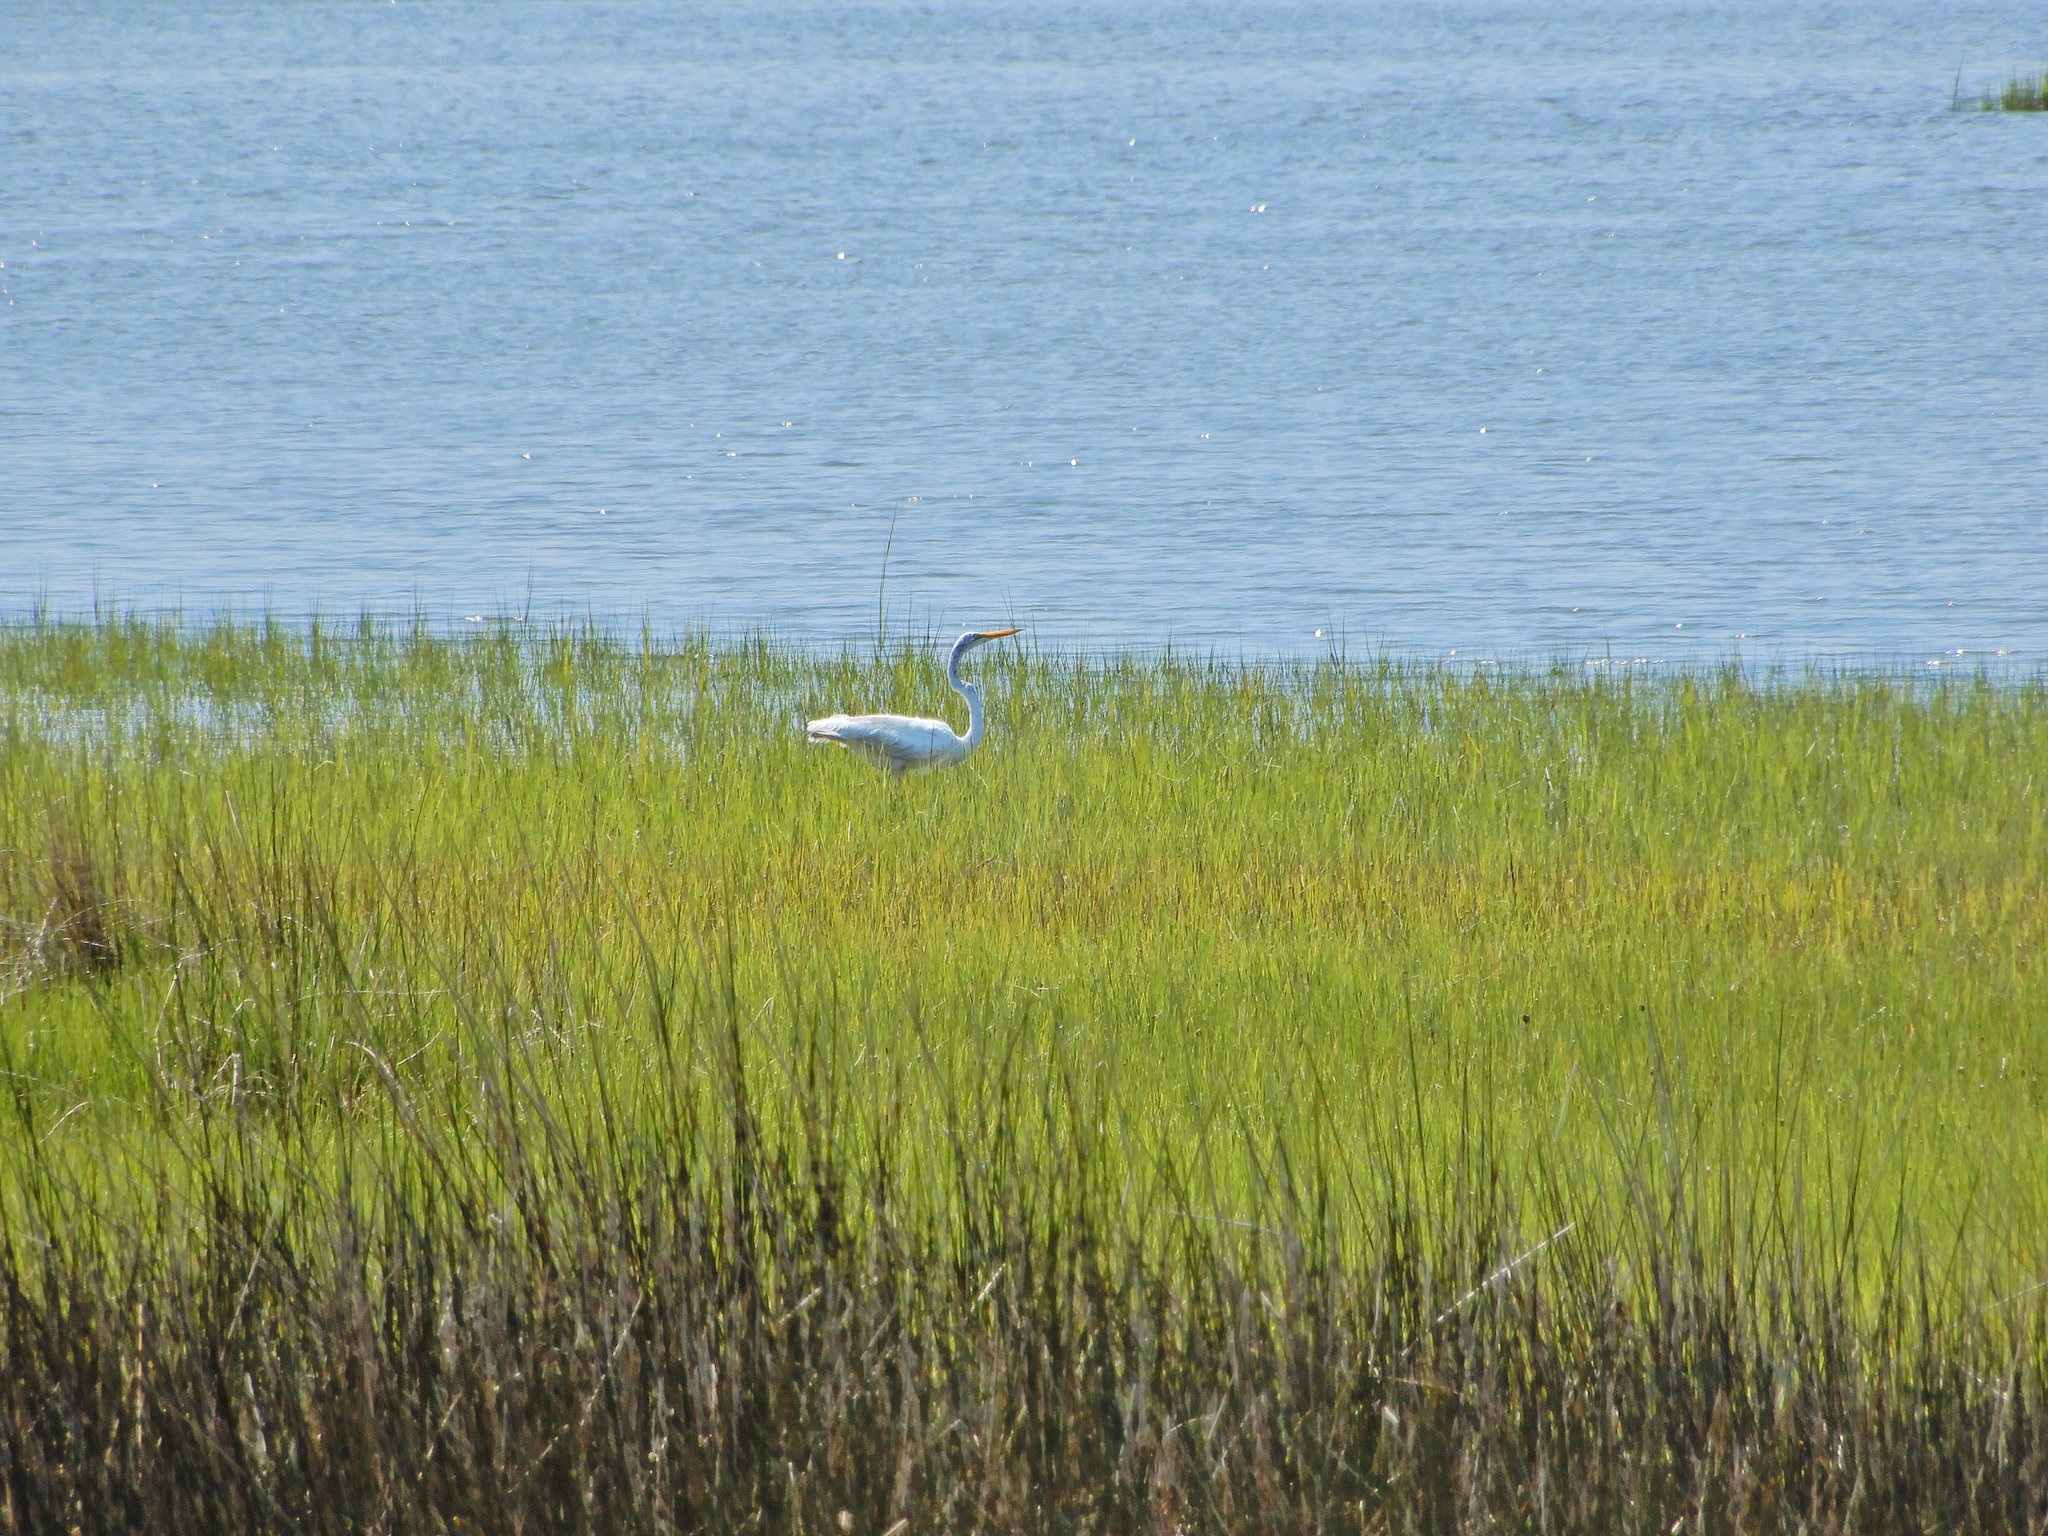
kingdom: Animalia
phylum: Chordata
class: Aves
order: Pelecaniformes
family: Ardeidae
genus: Ardea
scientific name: Ardea alba
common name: Great egret
